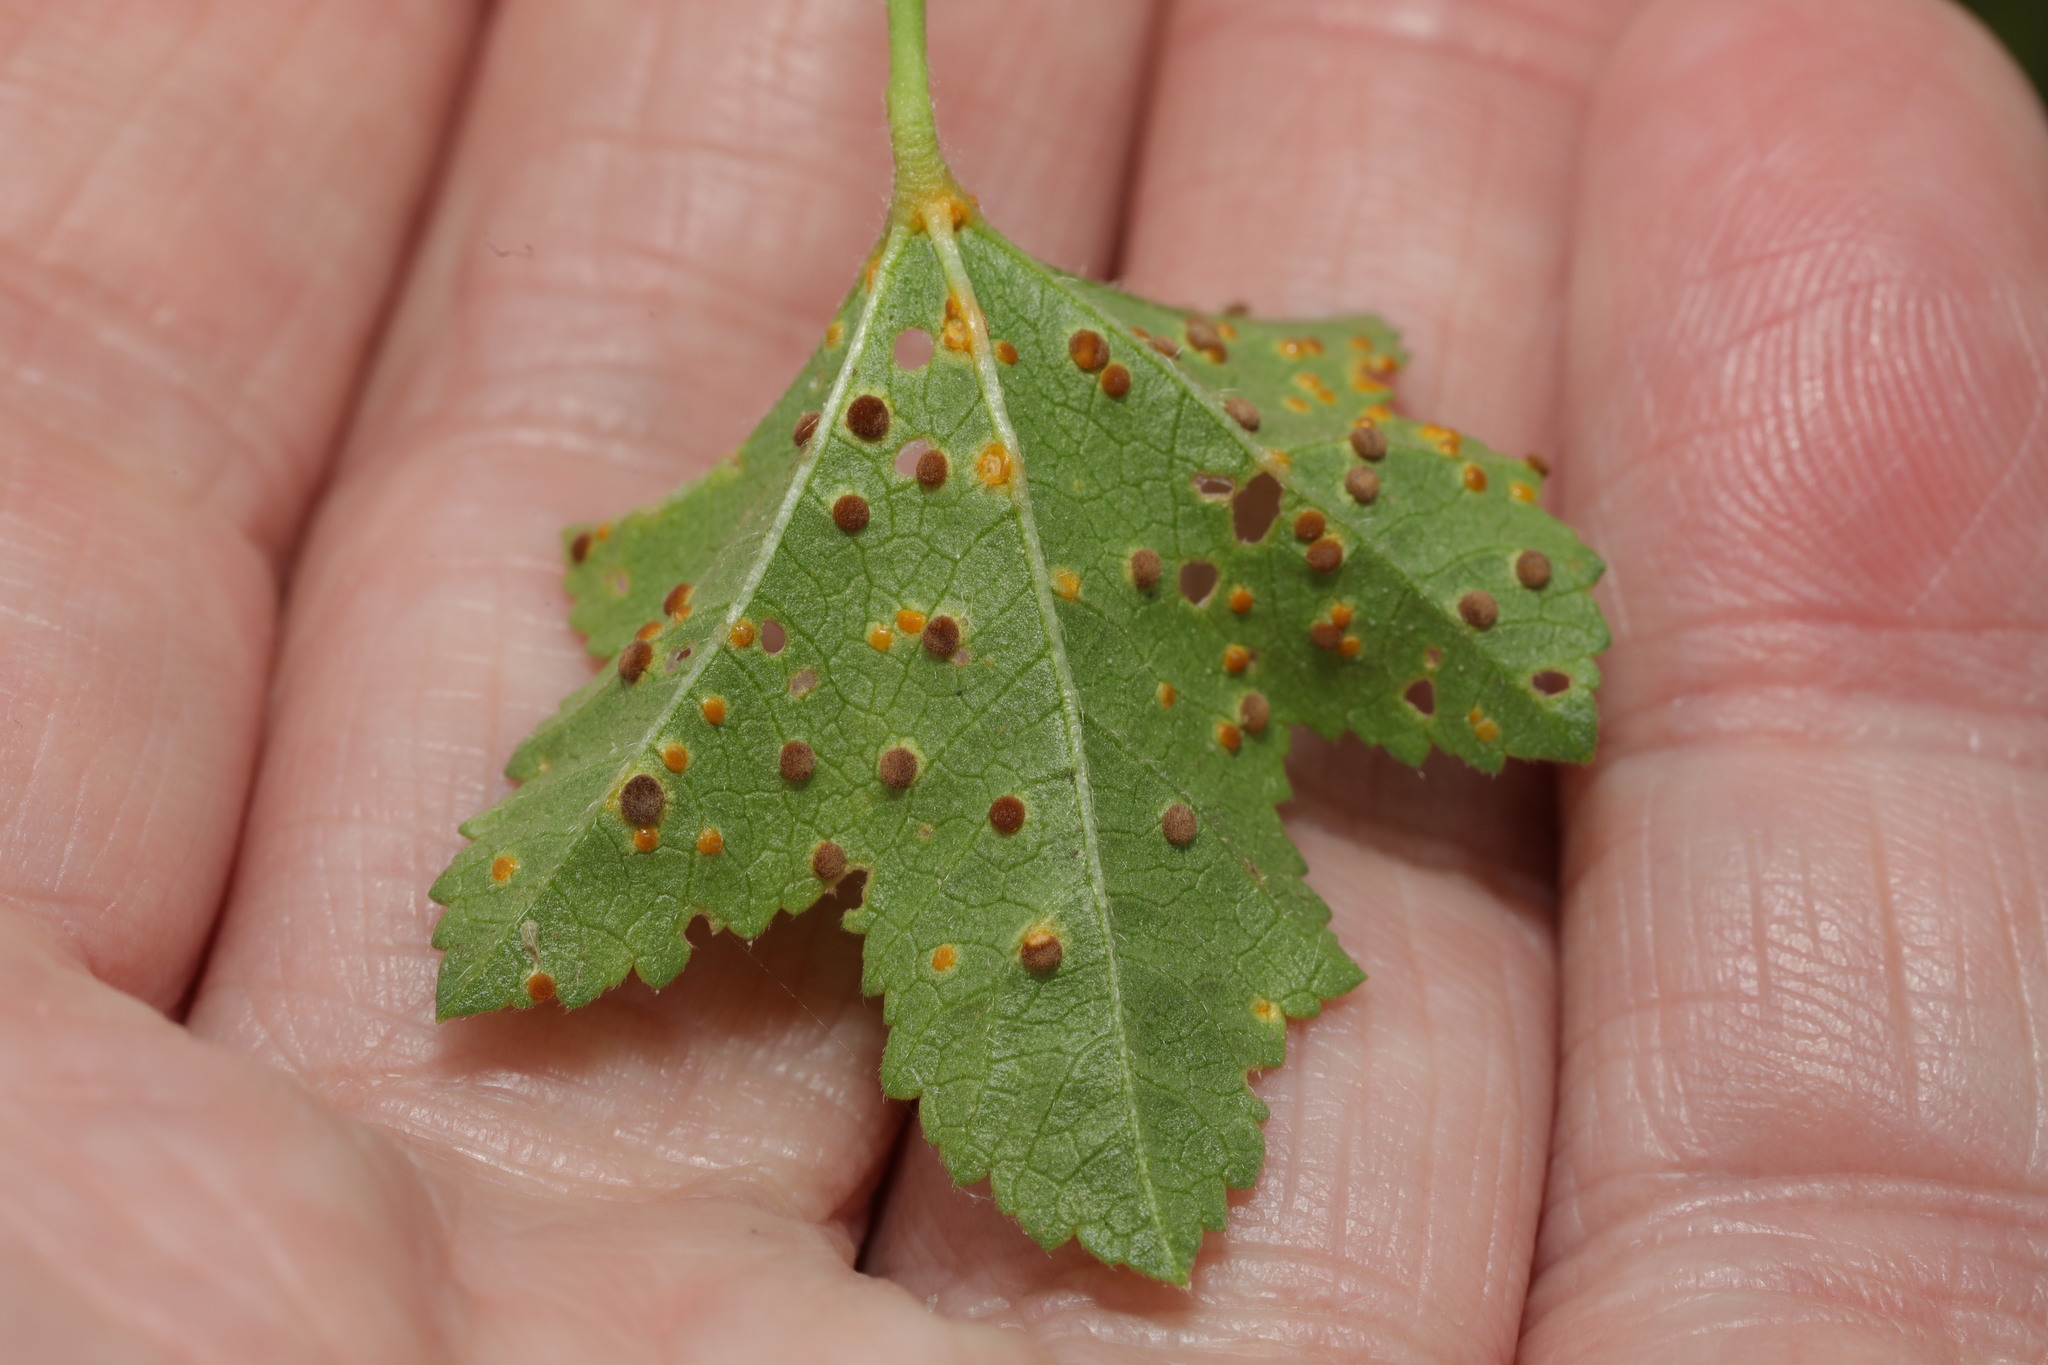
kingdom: Fungi
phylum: Basidiomycota
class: Pucciniomycetes
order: Pucciniales
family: Pucciniaceae
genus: Puccinia
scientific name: Puccinia malvacearum
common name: Hollyhock rust
